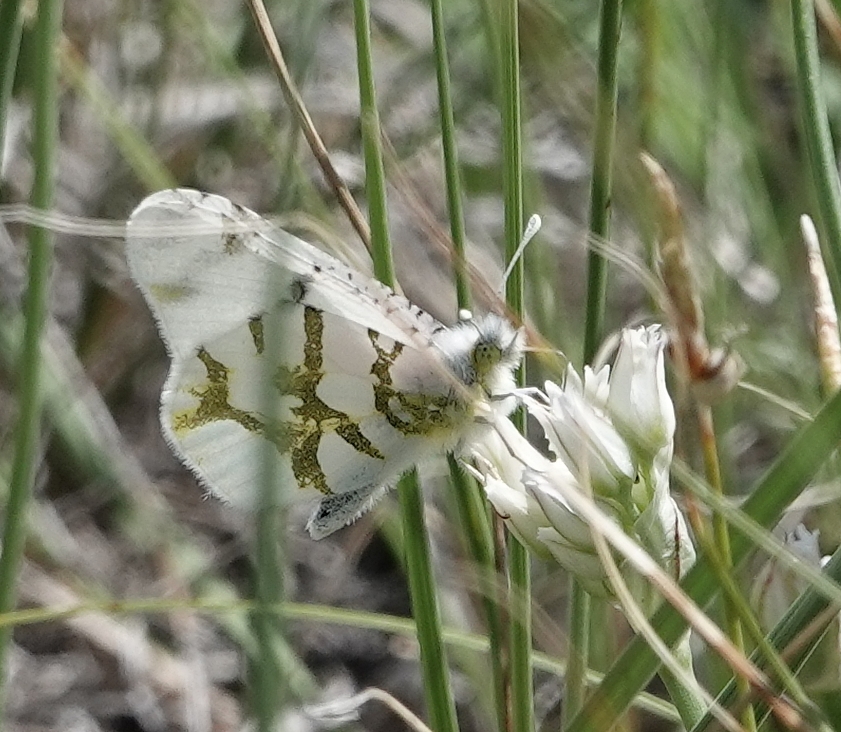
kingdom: Animalia
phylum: Arthropoda
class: Insecta
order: Lepidoptera
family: Pieridae
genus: Euchloe
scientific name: Euchloe olympia
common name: Olympia
